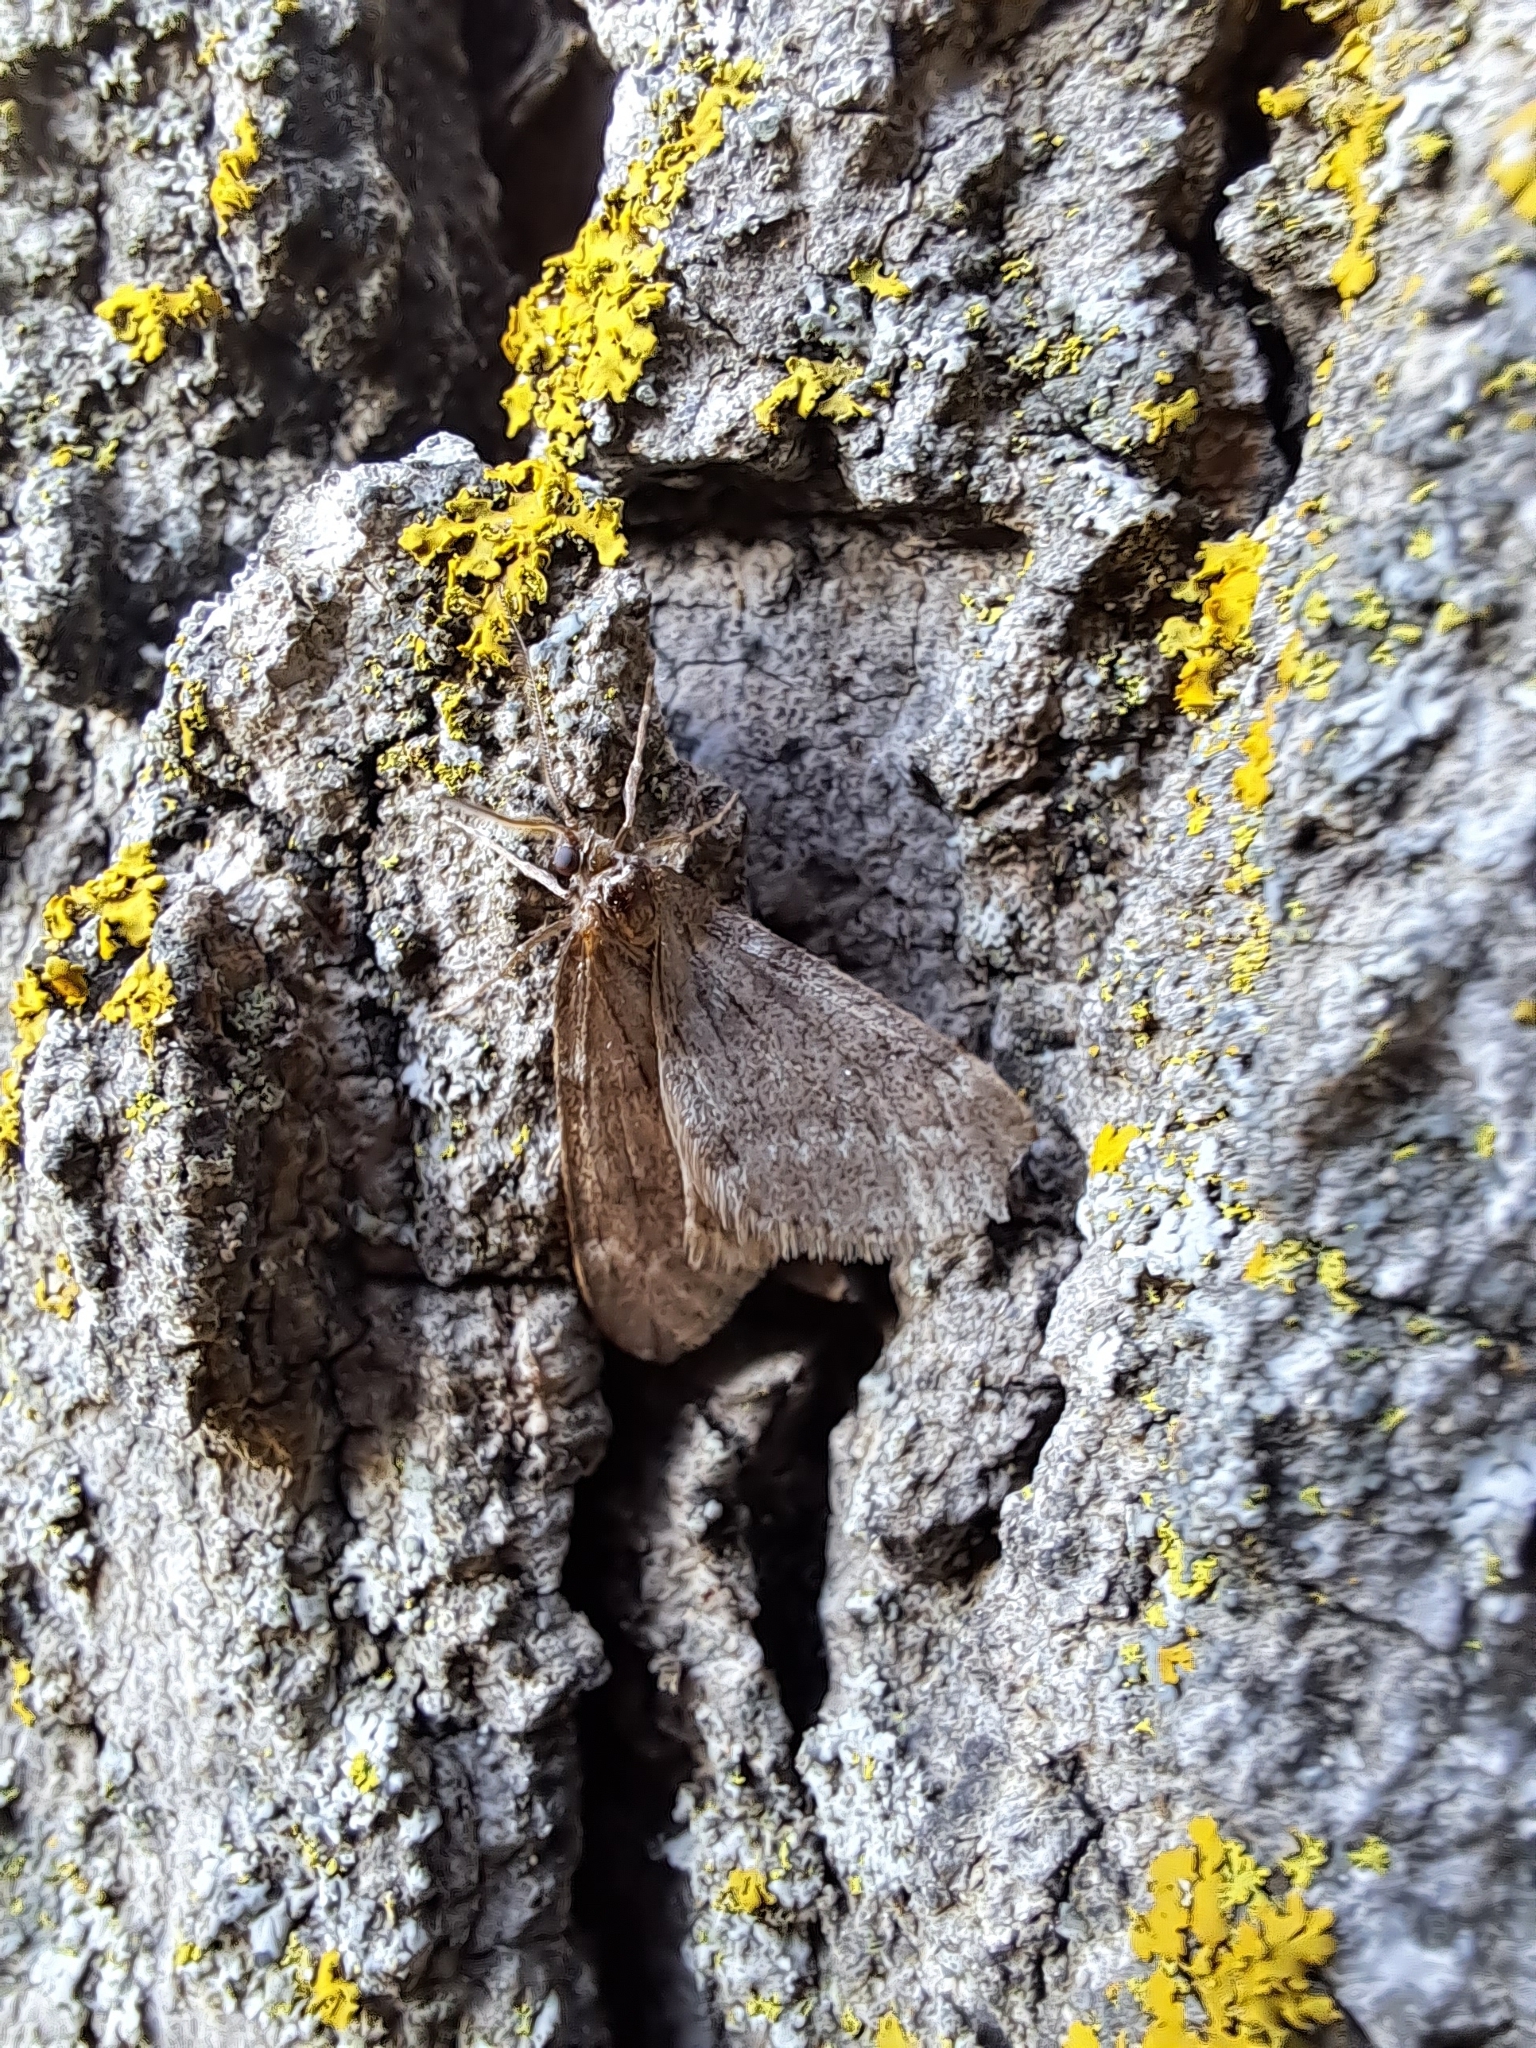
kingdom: Animalia
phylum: Arthropoda
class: Insecta
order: Lepidoptera
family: Geometridae
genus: Alsophila
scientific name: Alsophila pometaria
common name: Fall cankerworm
